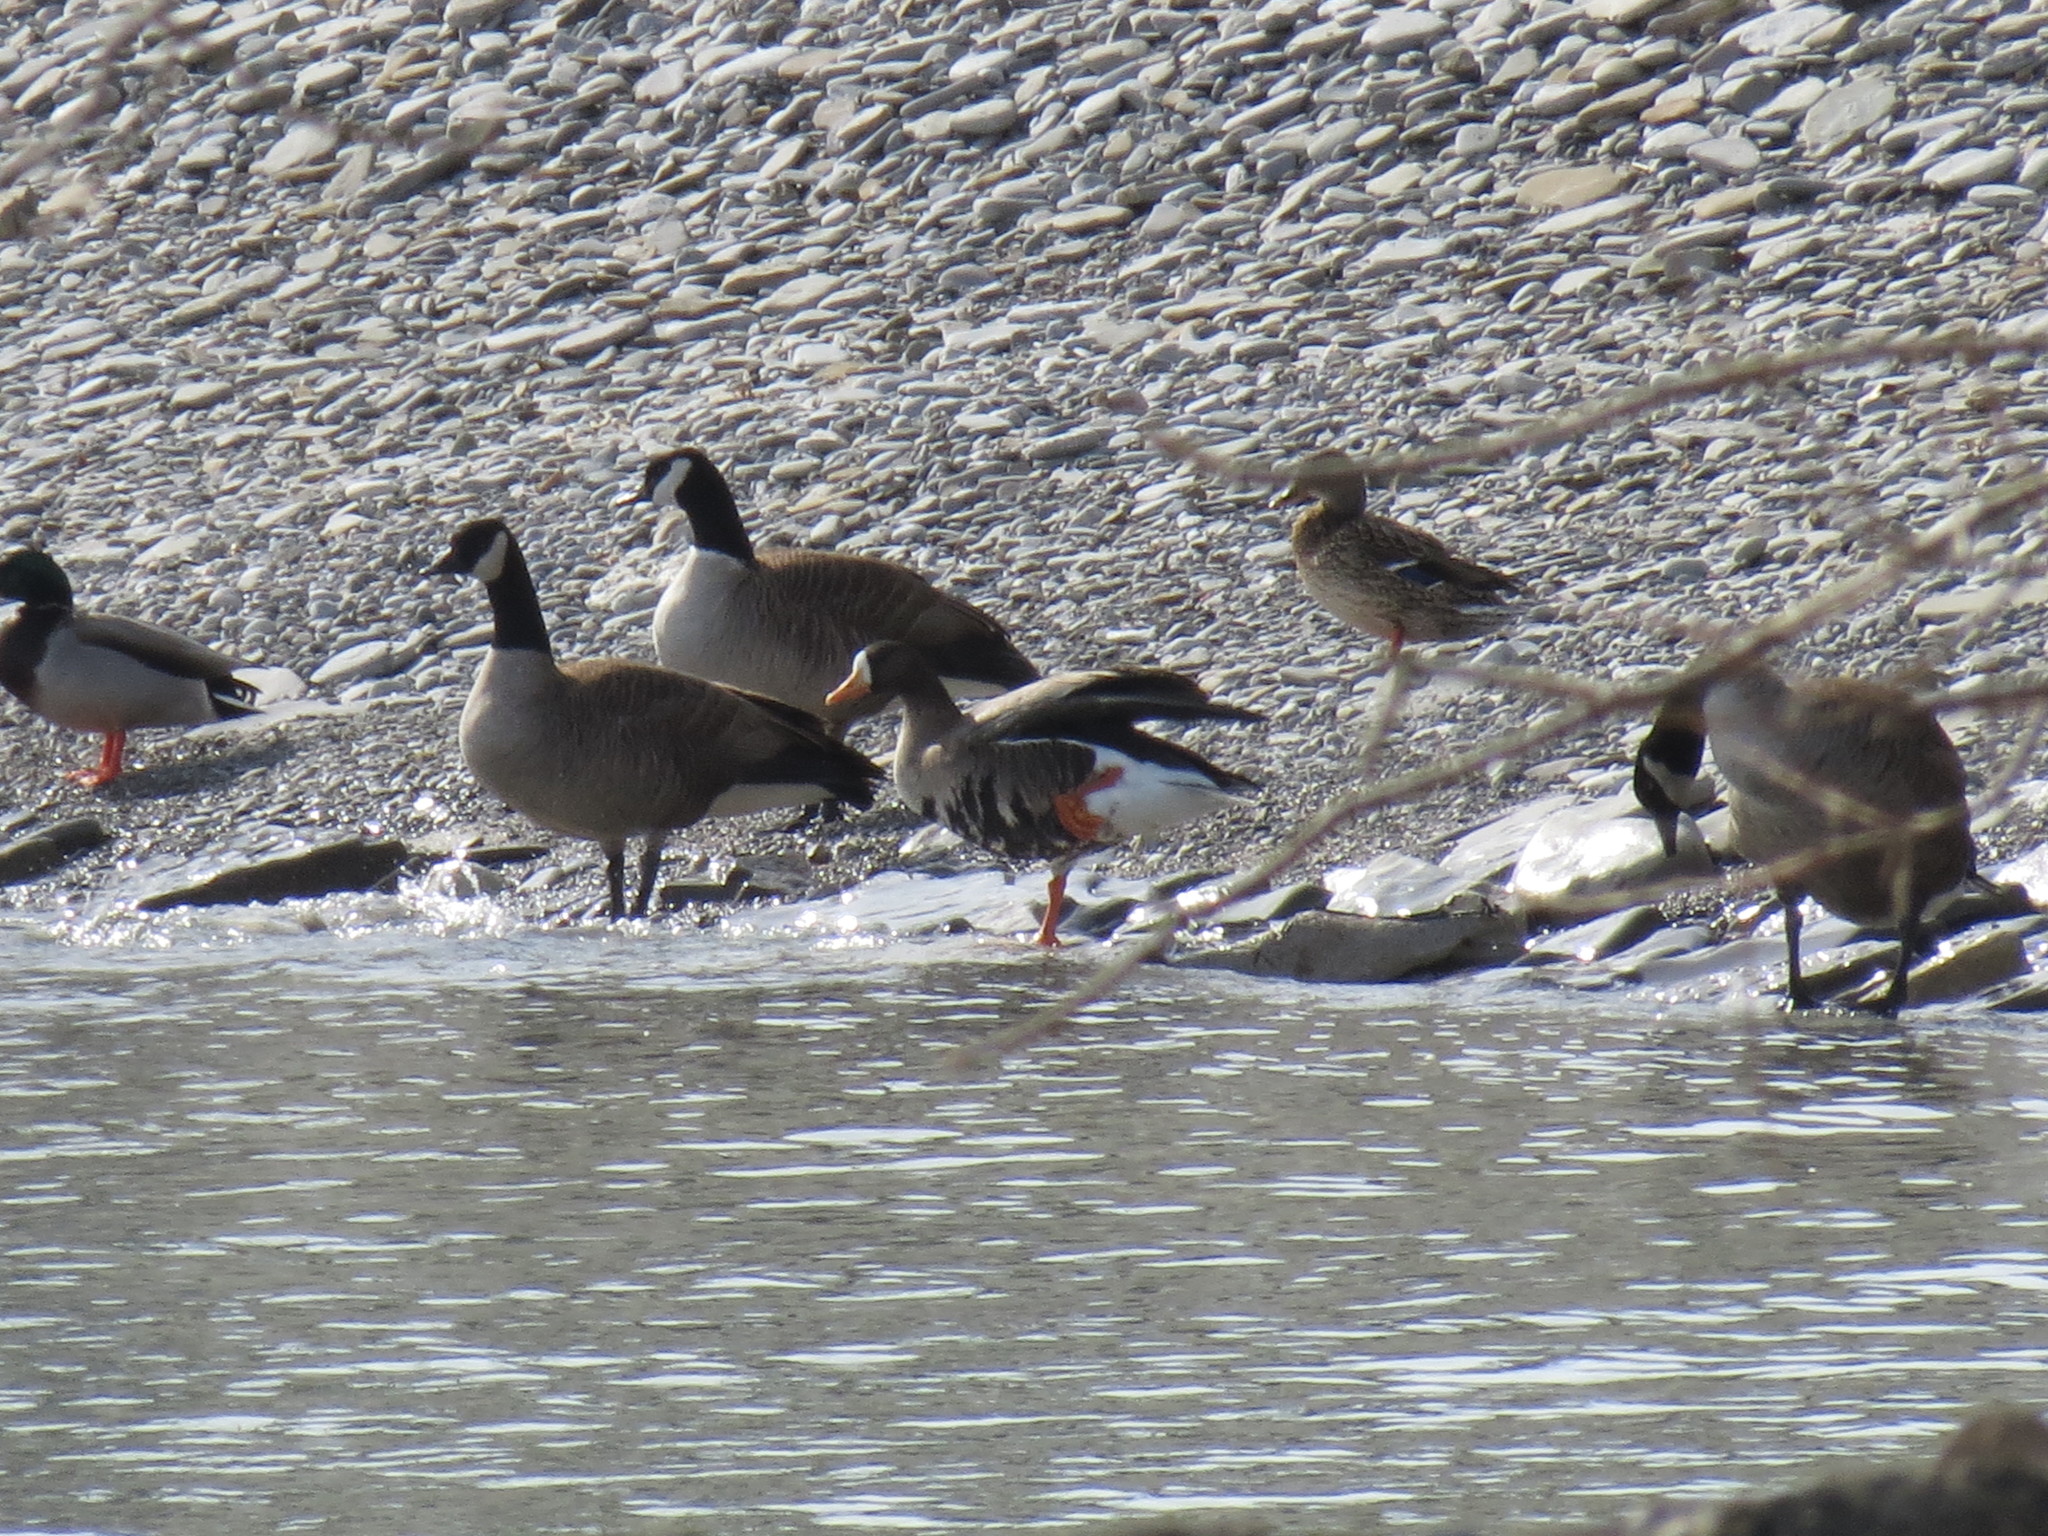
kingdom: Animalia
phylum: Chordata
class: Aves
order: Anseriformes
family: Anatidae
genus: Anser
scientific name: Anser albifrons
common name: Greater white-fronted goose
